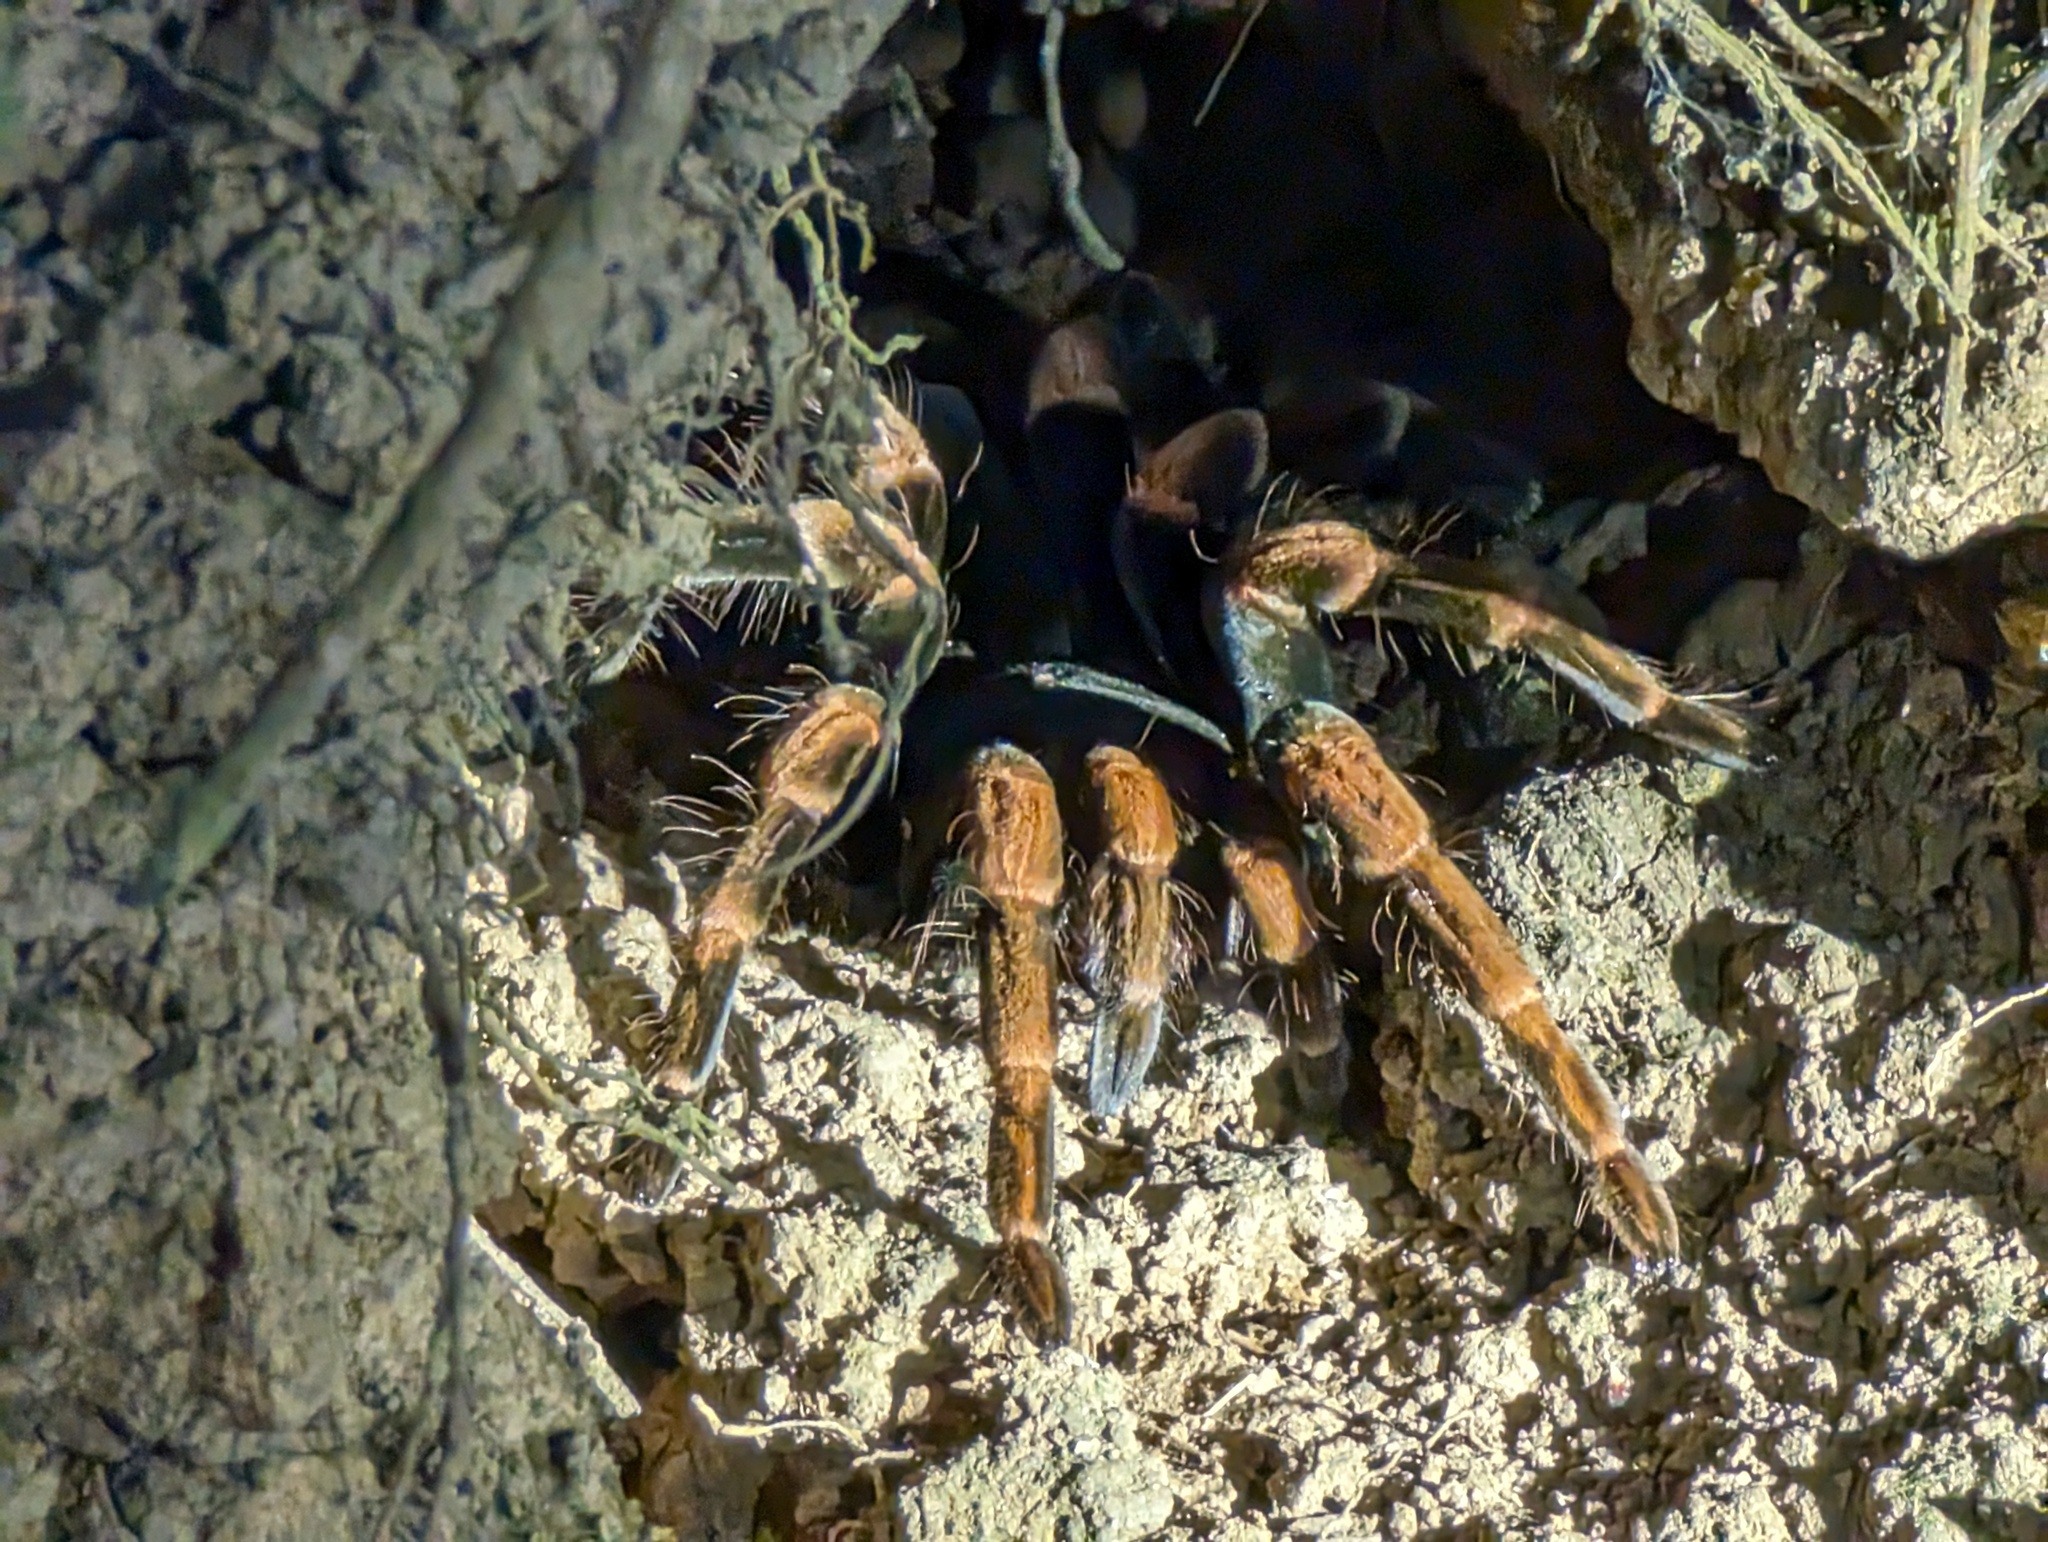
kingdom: Animalia
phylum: Arthropoda
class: Arachnida
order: Araneae
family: Theraphosidae
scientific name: Theraphosidae
